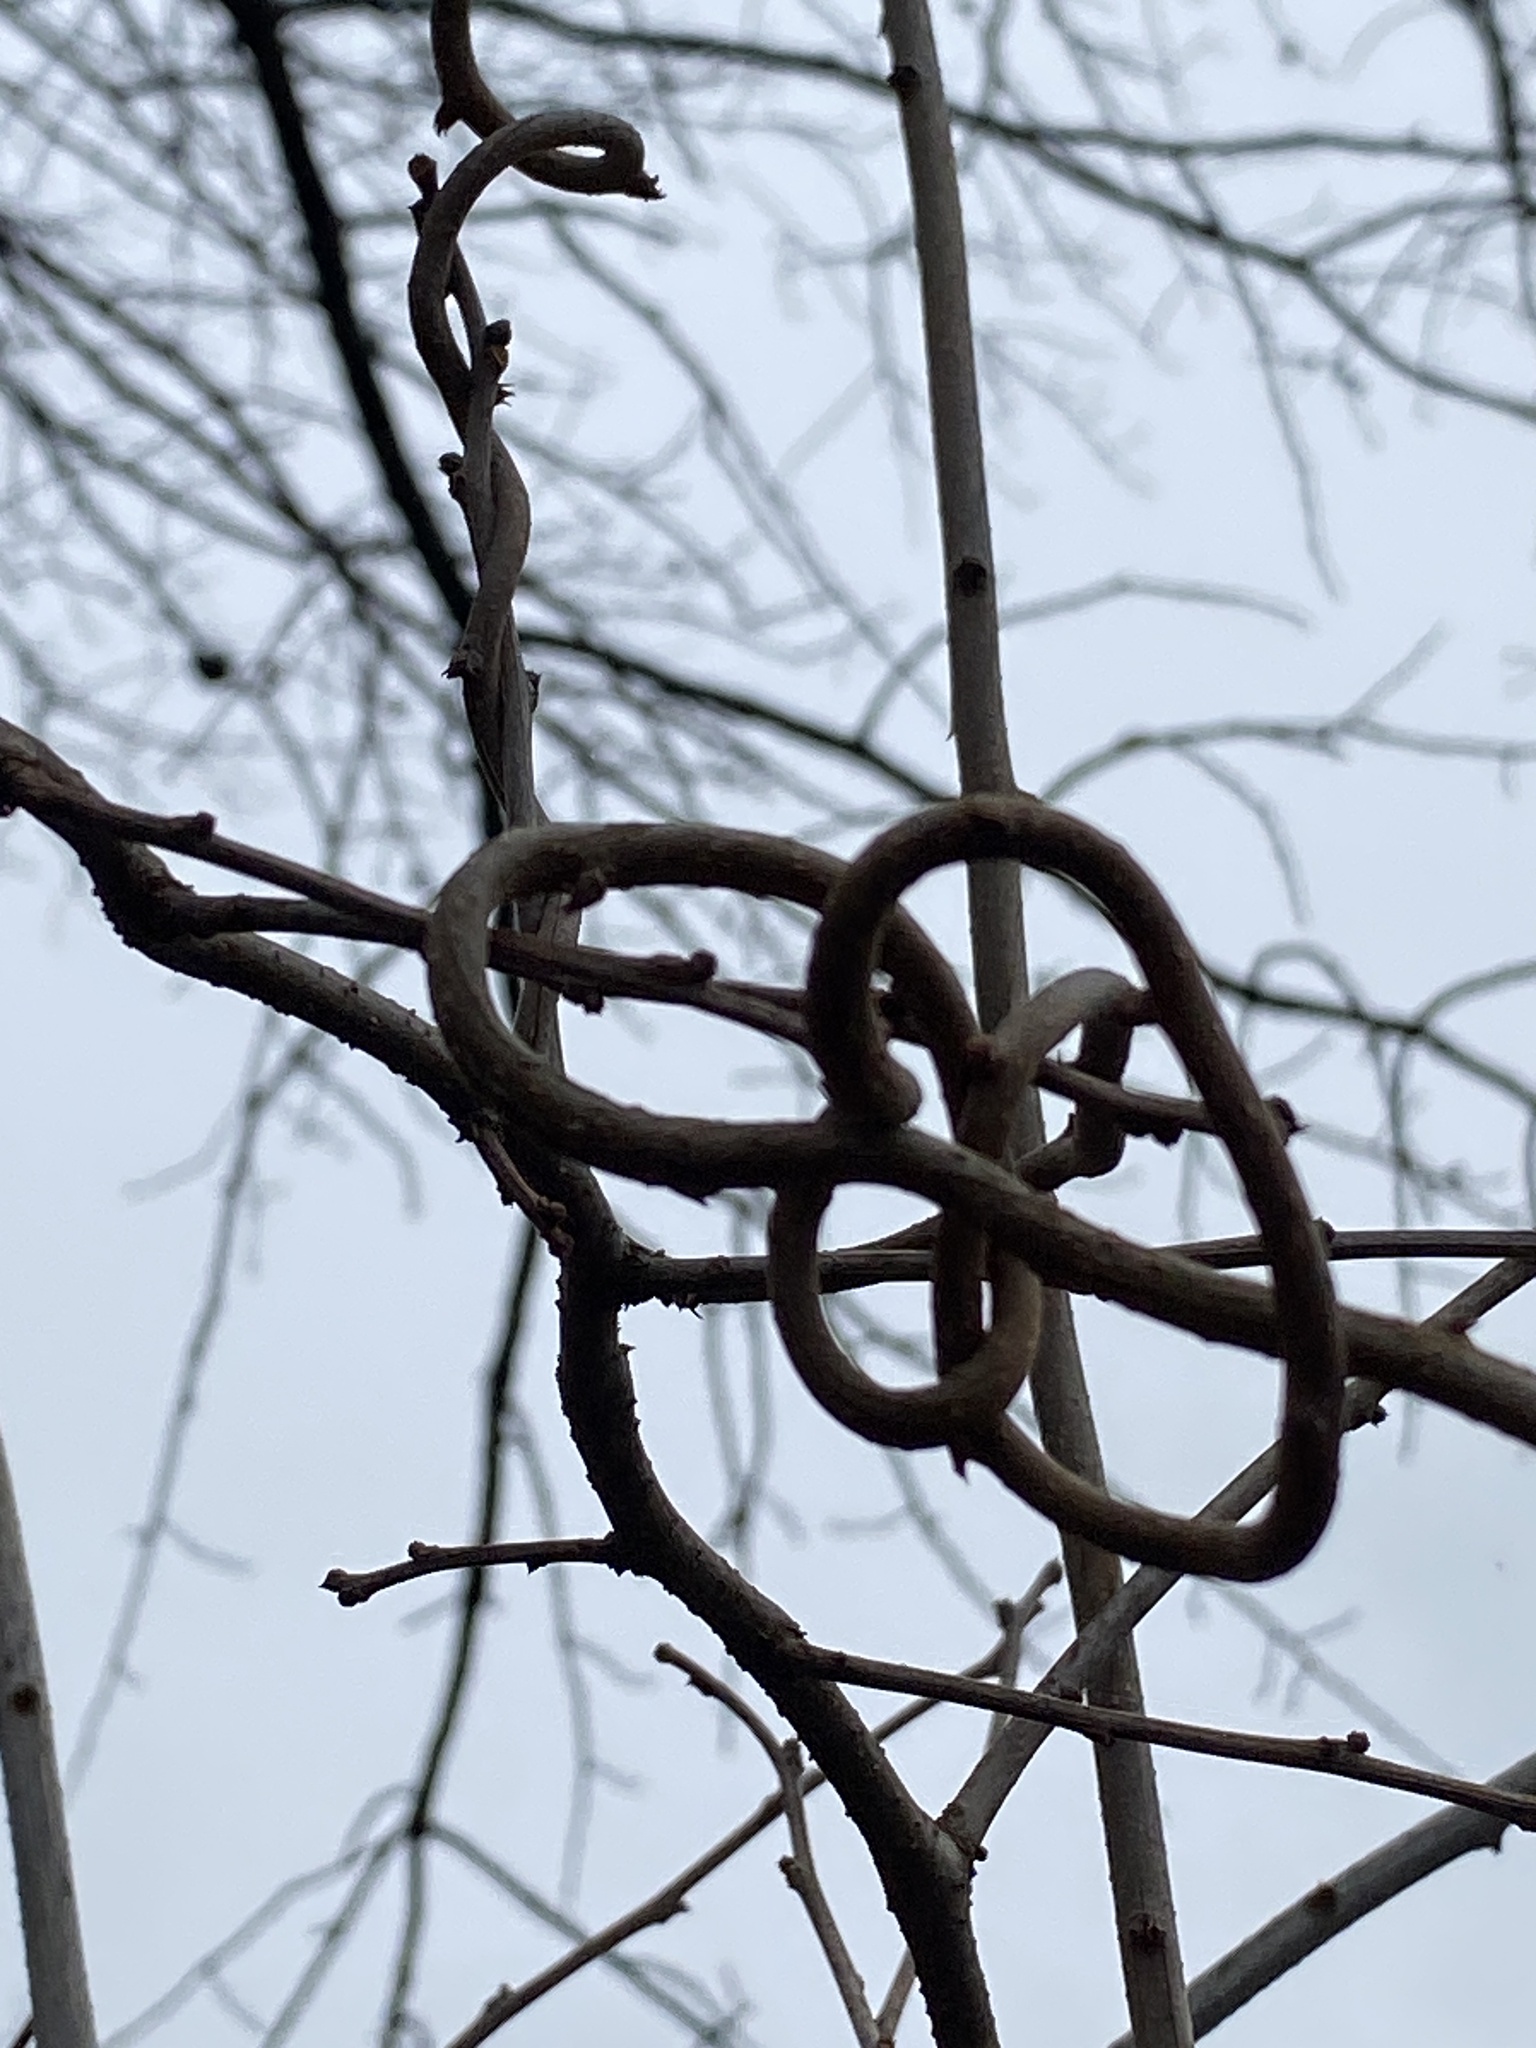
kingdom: Plantae
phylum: Tracheophyta
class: Magnoliopsida
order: Celastrales
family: Celastraceae
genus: Celastrus
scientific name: Celastrus orbiculatus
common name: Oriental bittersweet
